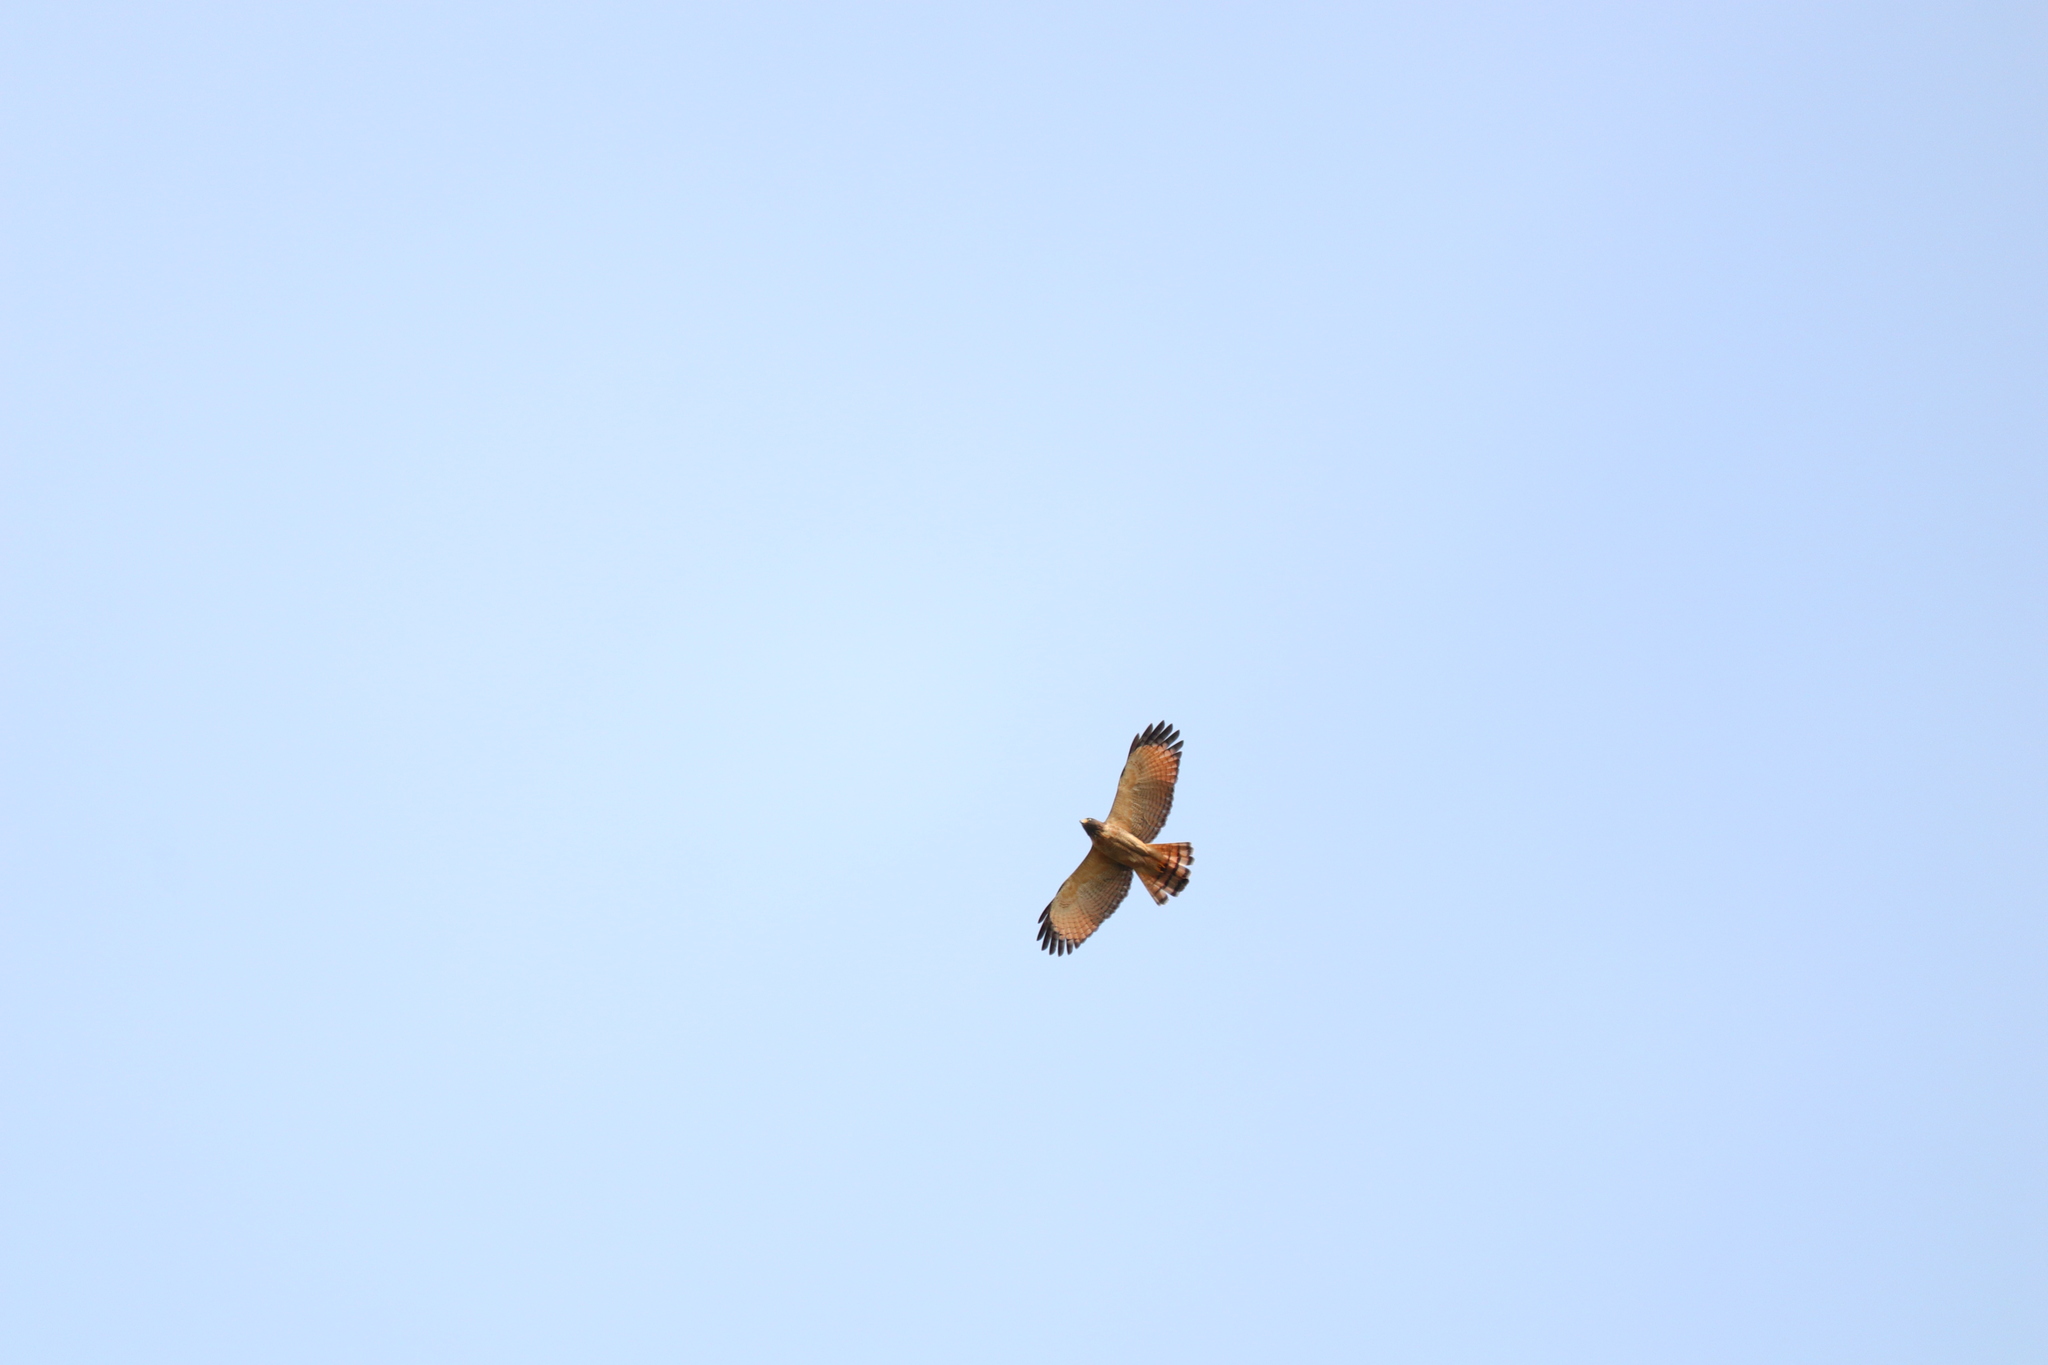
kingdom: Animalia
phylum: Chordata
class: Aves
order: Accipitriformes
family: Accipitridae
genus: Rupornis
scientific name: Rupornis magnirostris
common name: Roadside hawk
